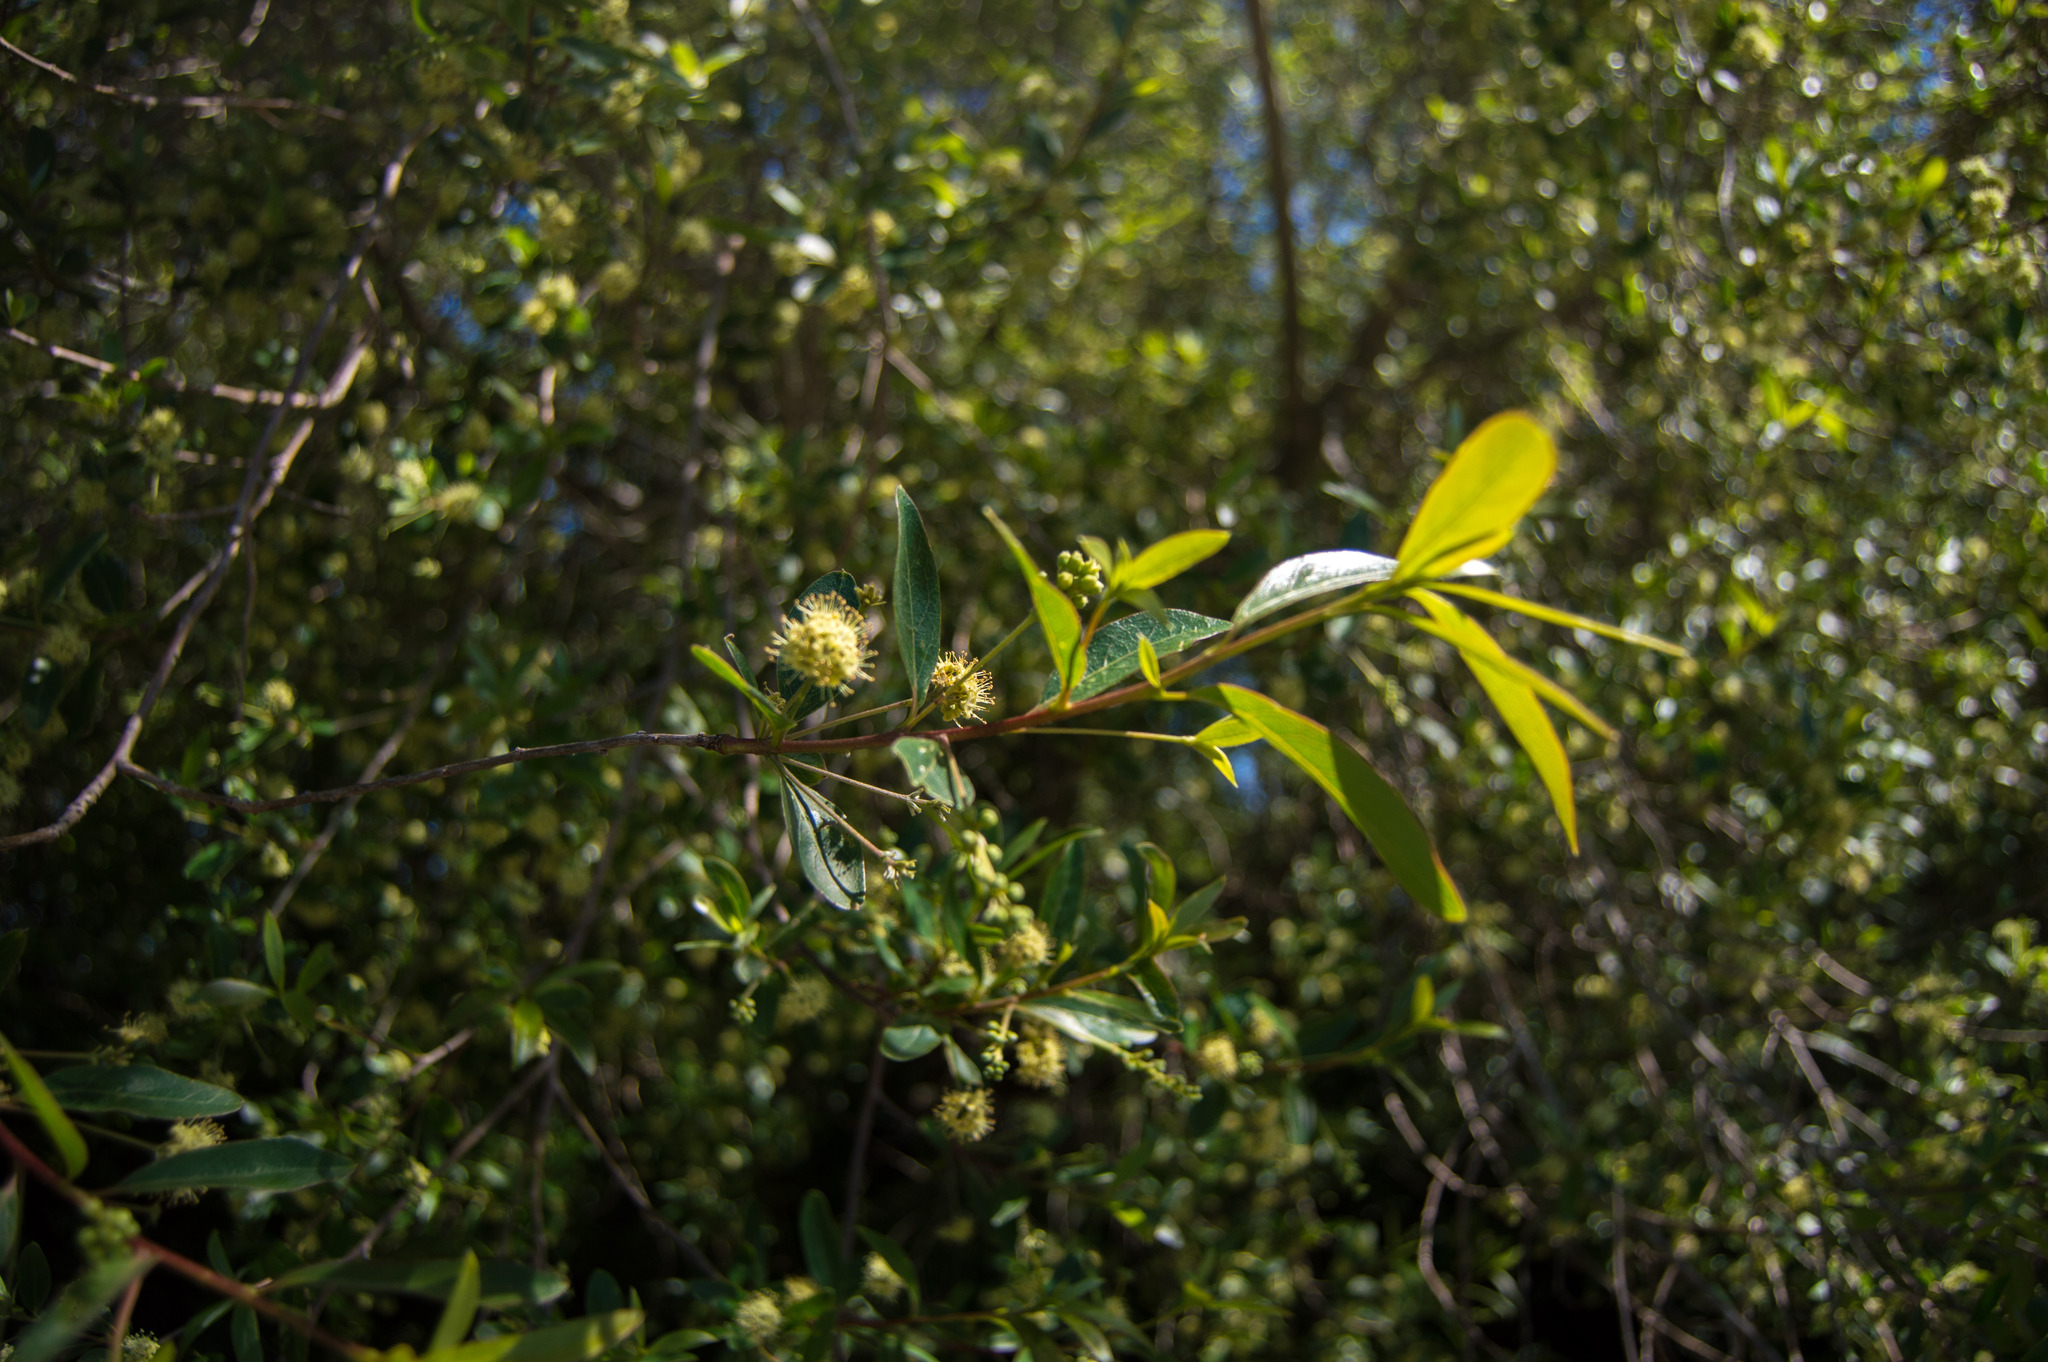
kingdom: Plantae
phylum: Tracheophyta
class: Magnoliopsida
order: Myrtales
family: Combretaceae
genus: Terminalia
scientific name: Terminalia australis
